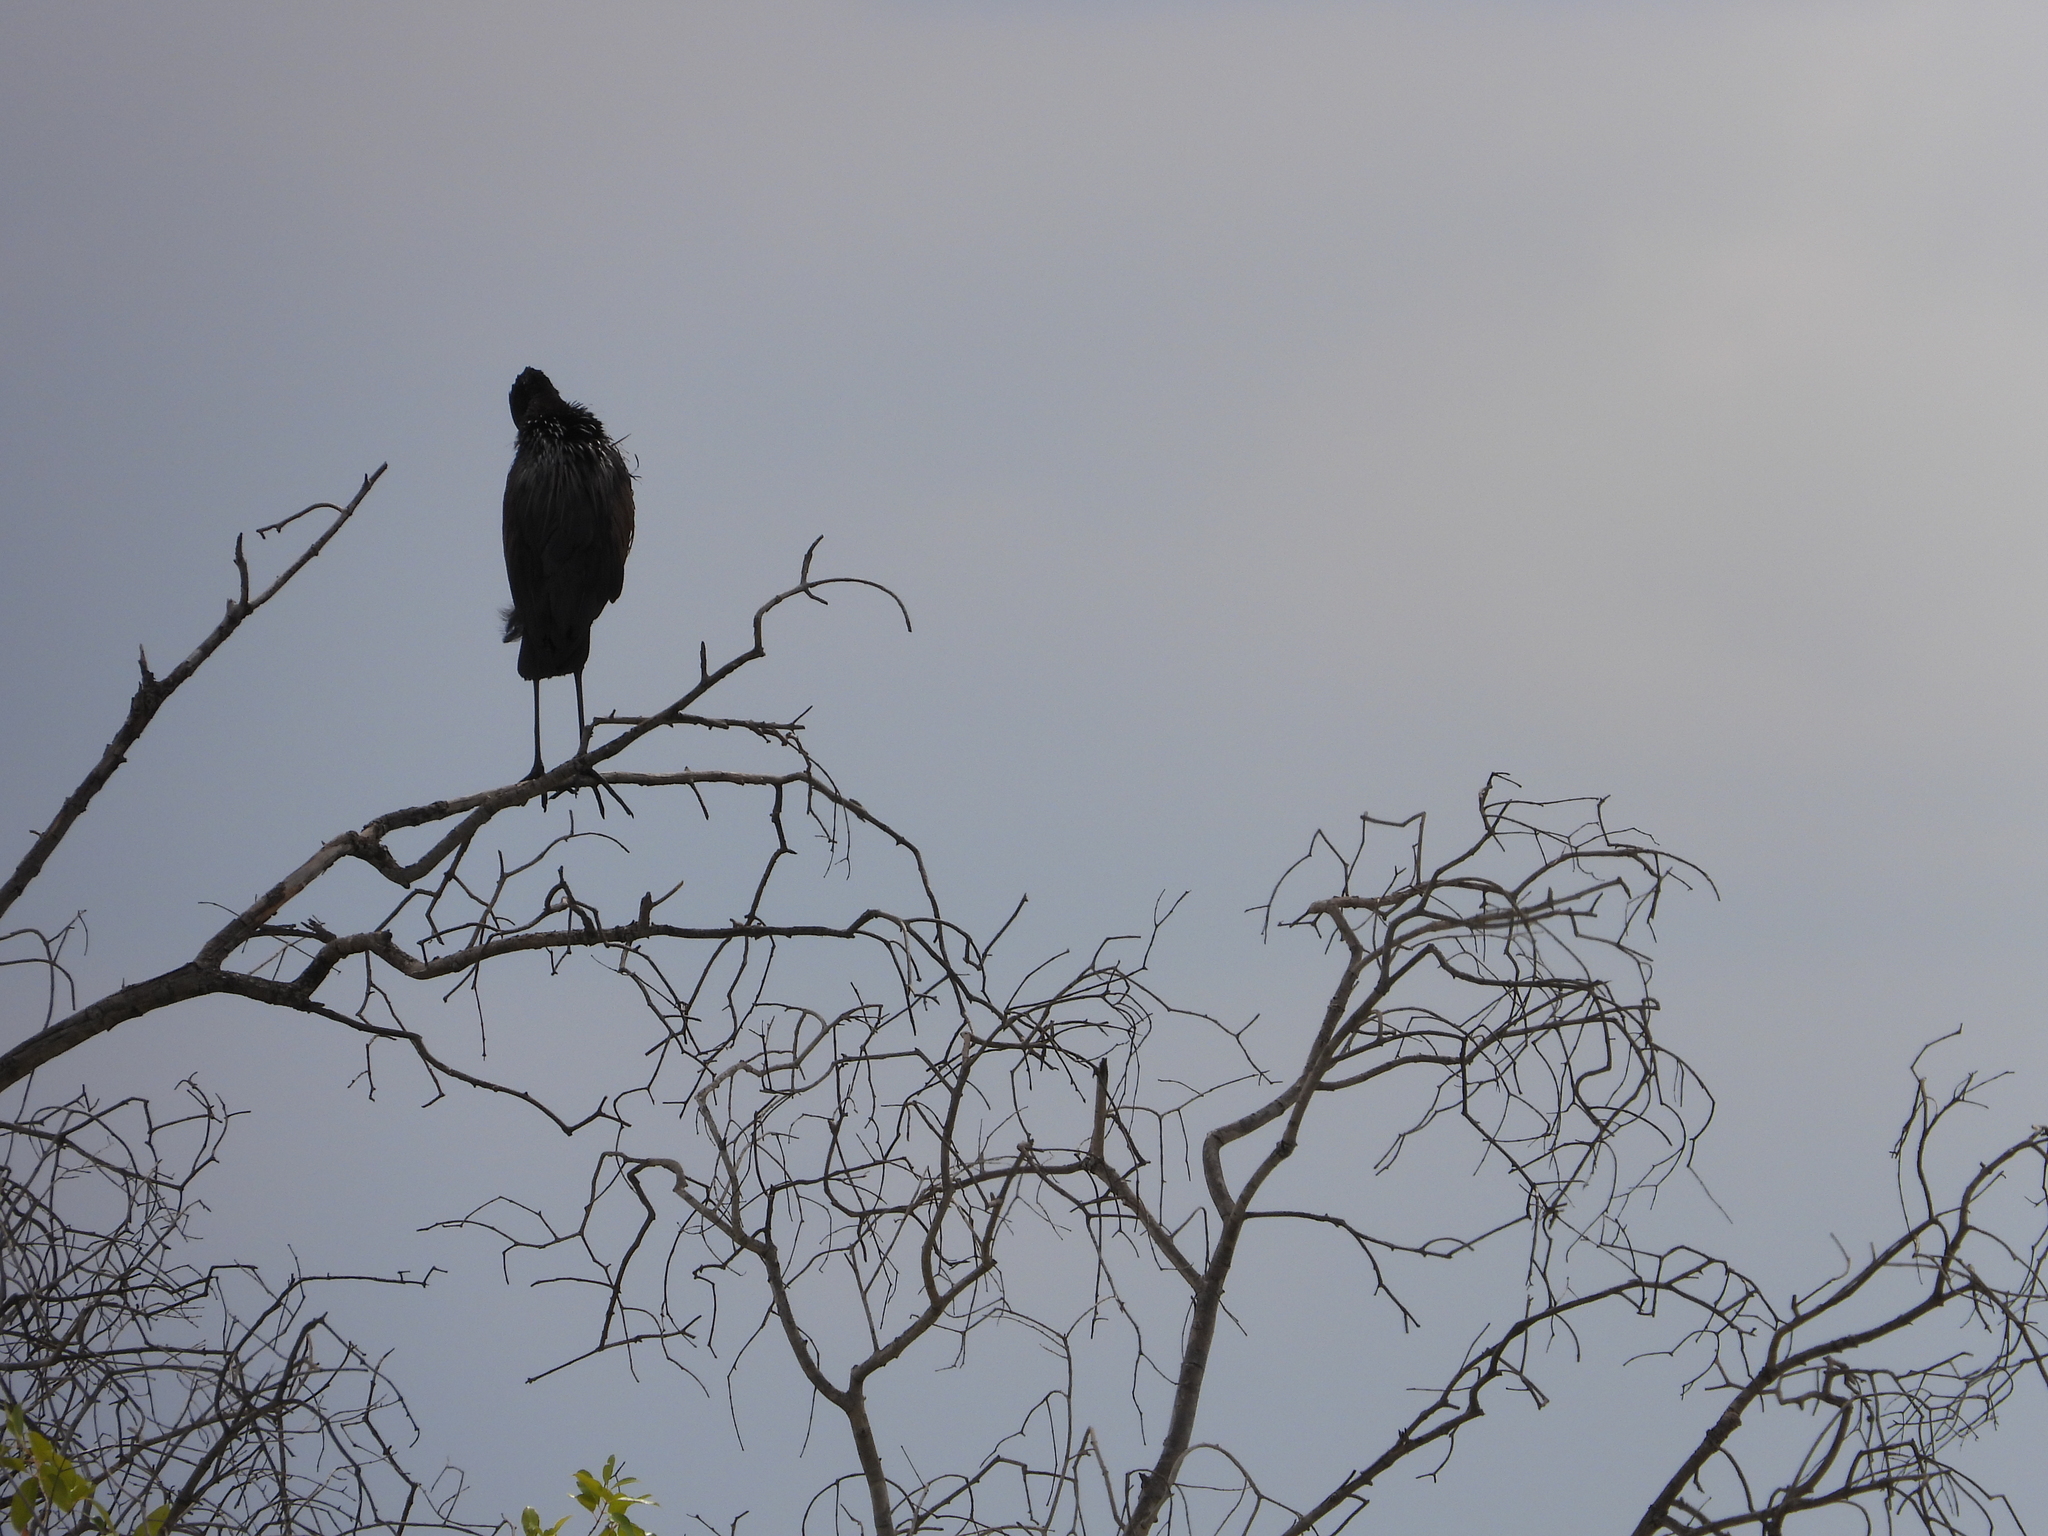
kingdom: Animalia
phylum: Chordata
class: Aves
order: Ciconiiformes
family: Ciconiidae
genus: Anastomus
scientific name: Anastomus lamelligerus
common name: African openbill
